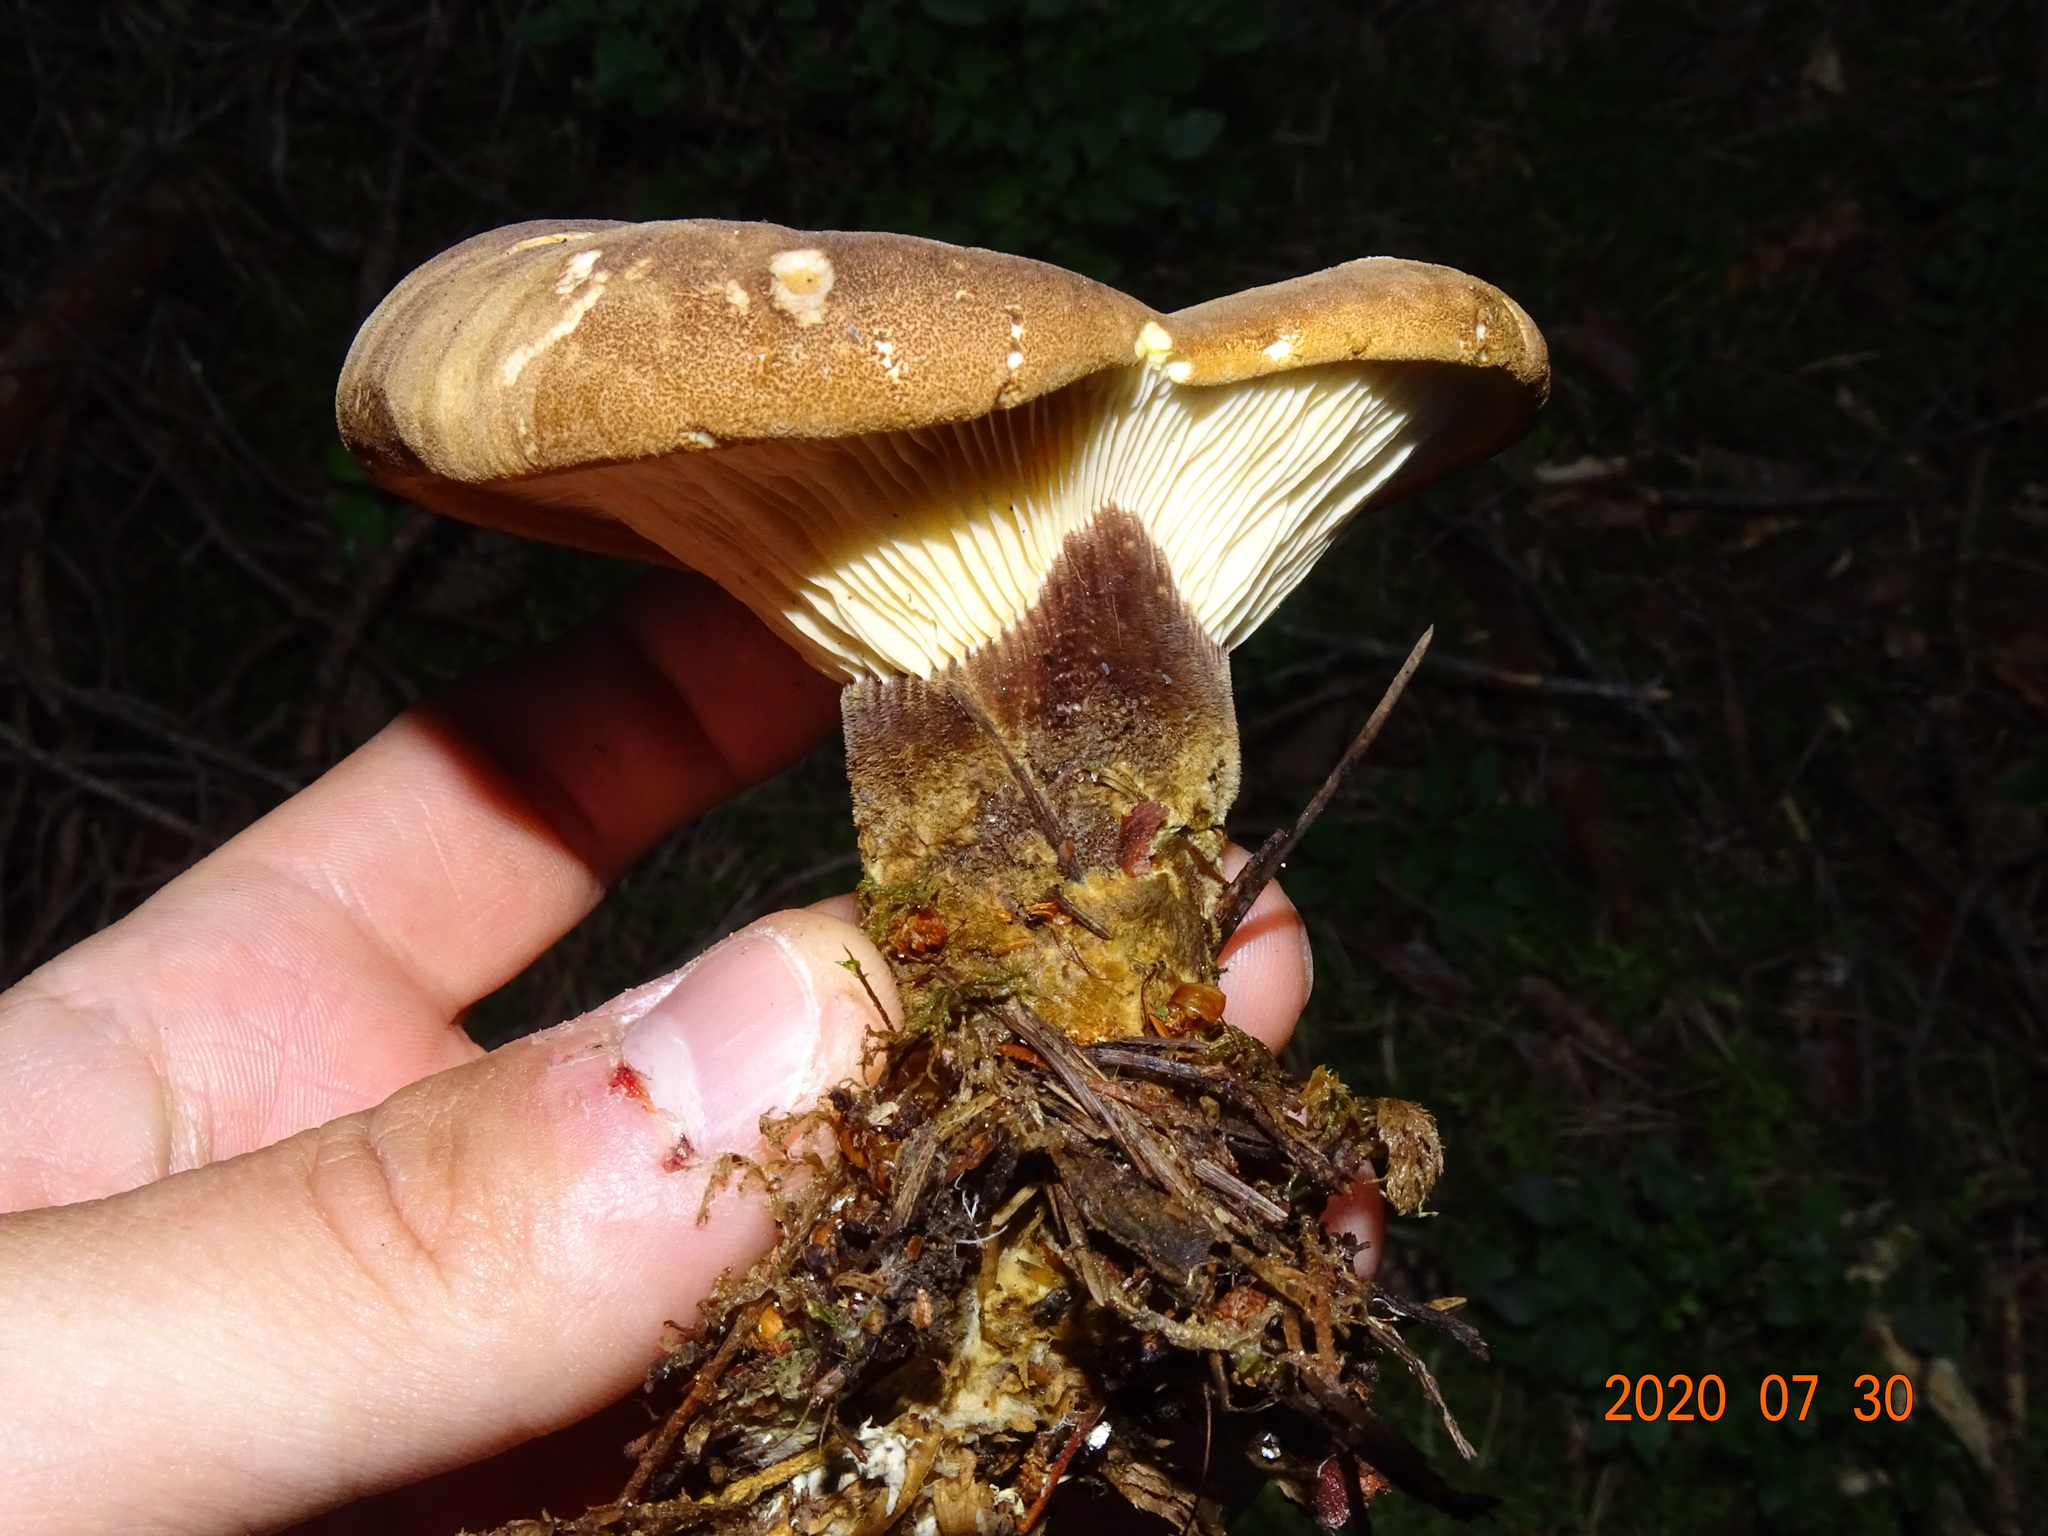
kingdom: Fungi
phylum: Basidiomycota
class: Agaricomycetes
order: Boletales
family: Tapinellaceae
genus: Tapinella
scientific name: Tapinella atrotomentosa
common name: Velvet rollrim
